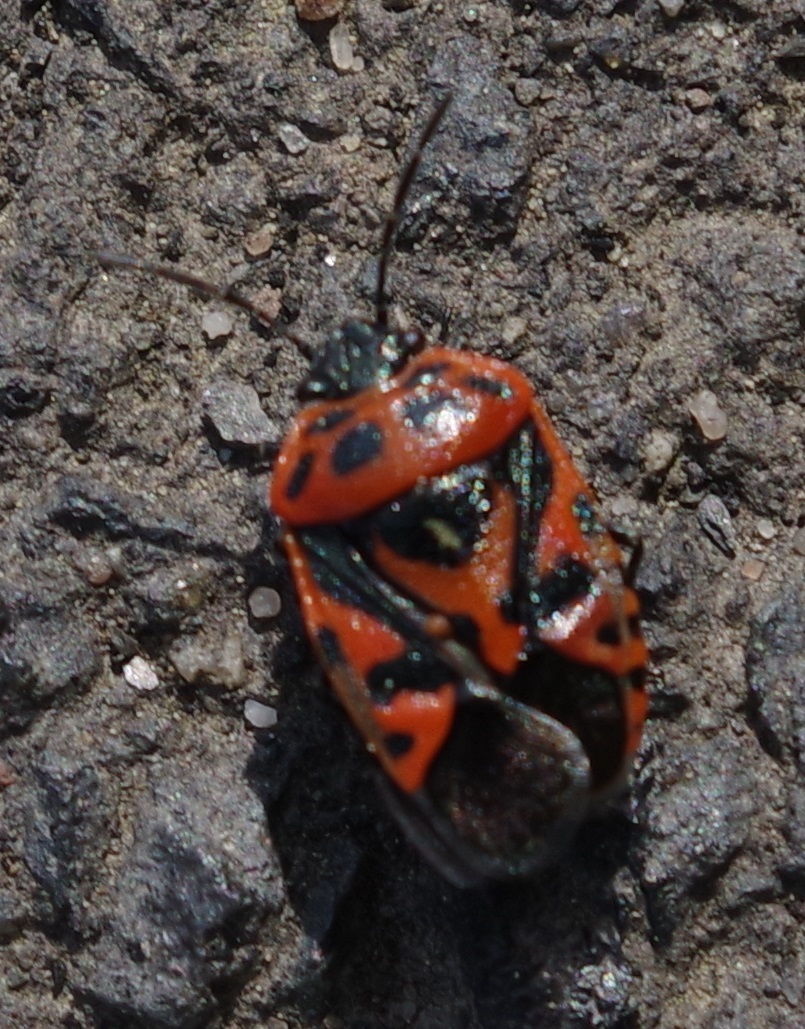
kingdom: Animalia
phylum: Arthropoda
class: Insecta
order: Hemiptera
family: Pentatomidae
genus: Eurydema
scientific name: Eurydema ornata
